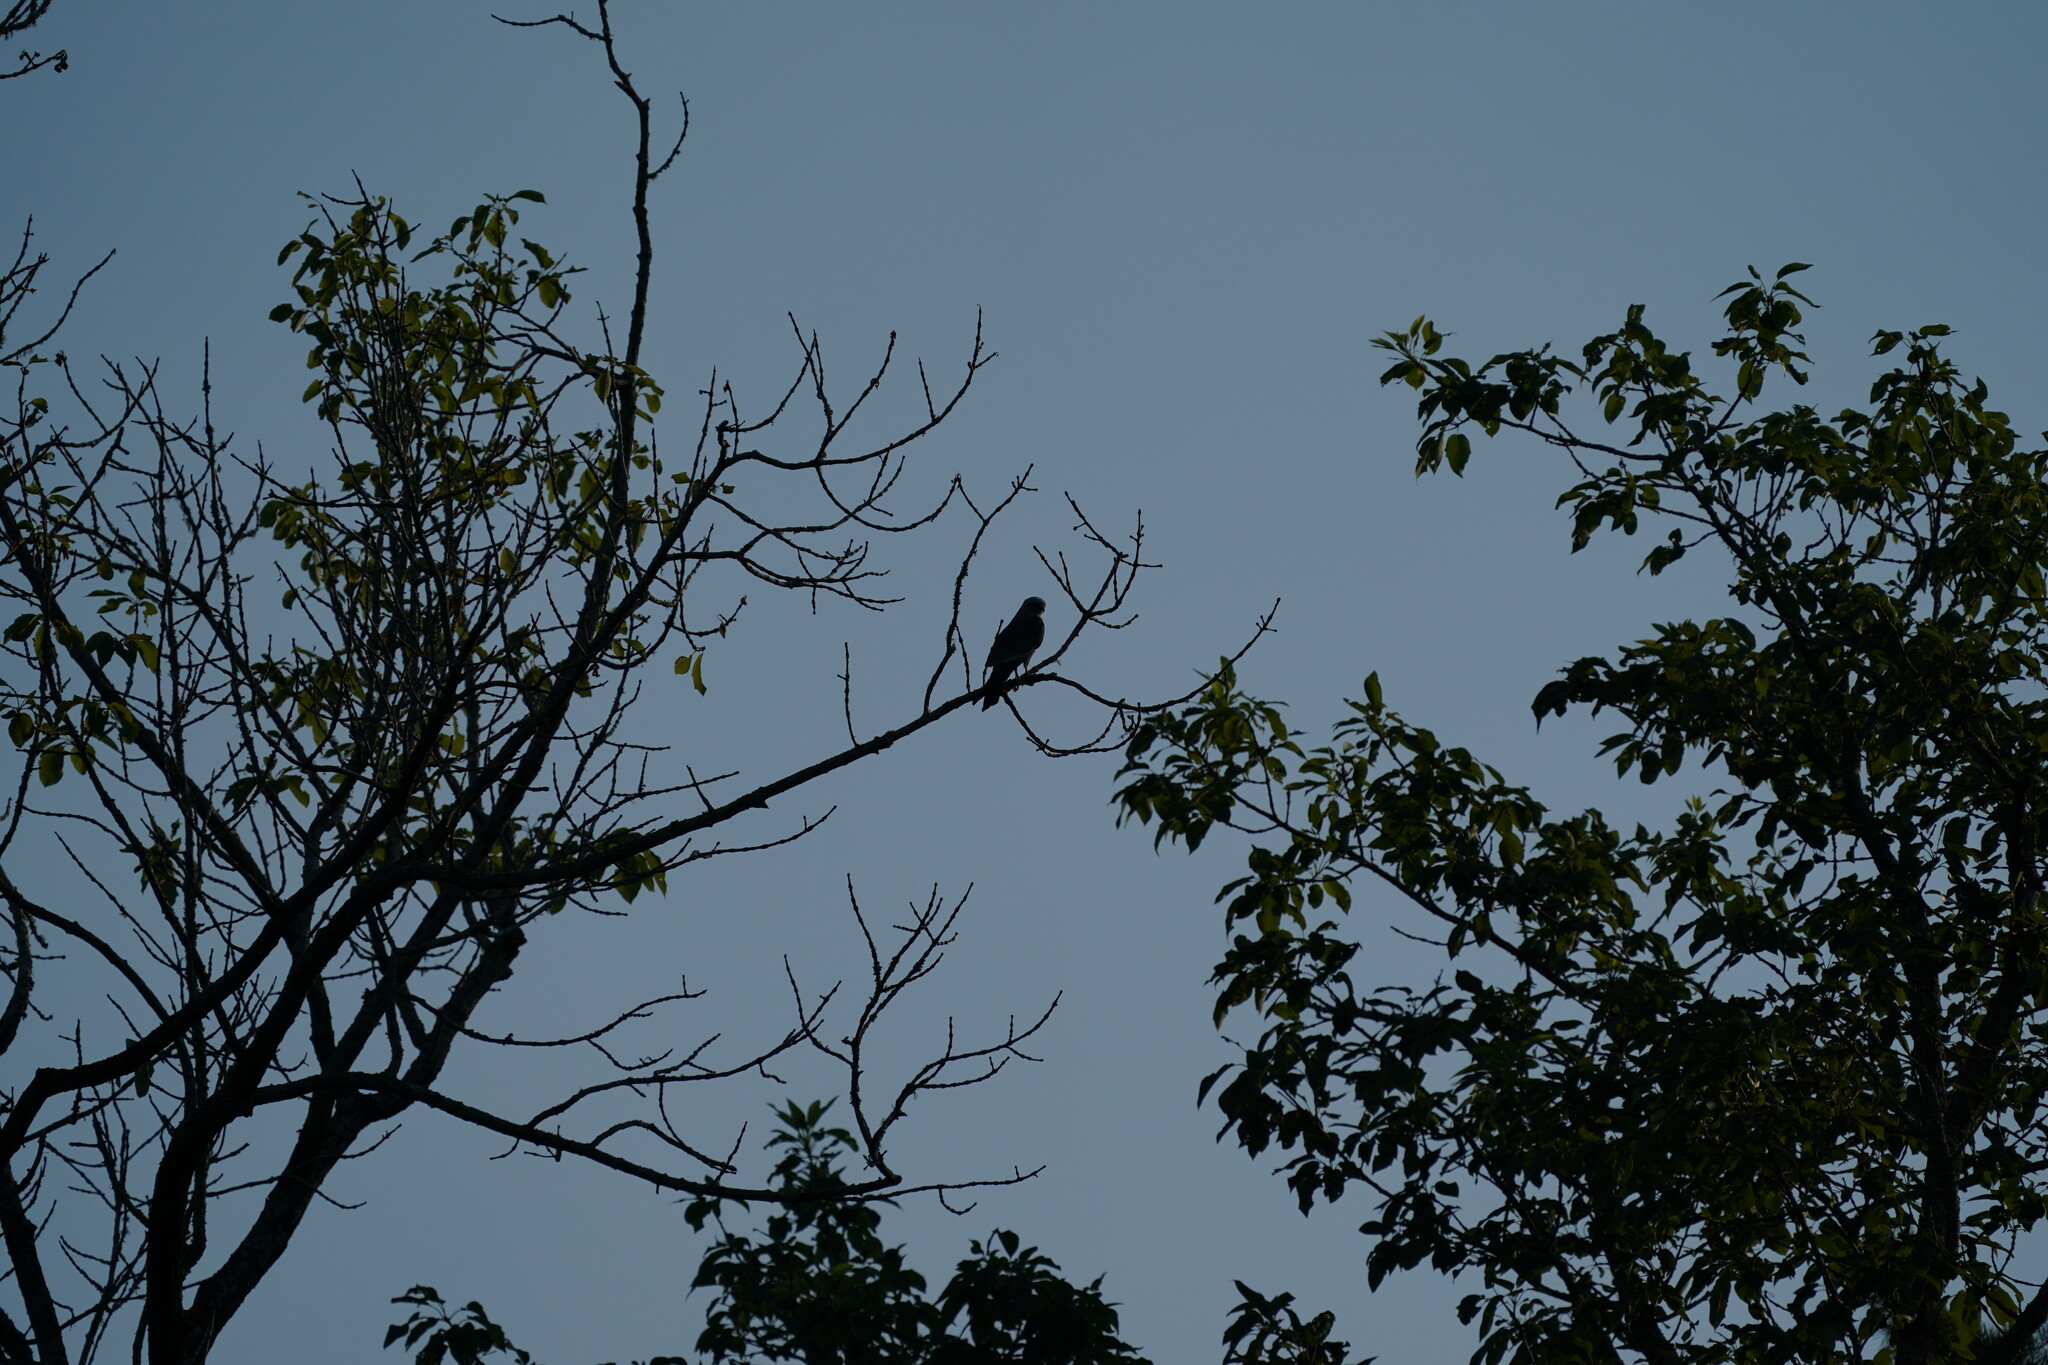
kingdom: Animalia
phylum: Chordata
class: Aves
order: Accipitriformes
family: Accipitridae
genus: Ictinia
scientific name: Ictinia mississippiensis
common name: Mississippi kite
